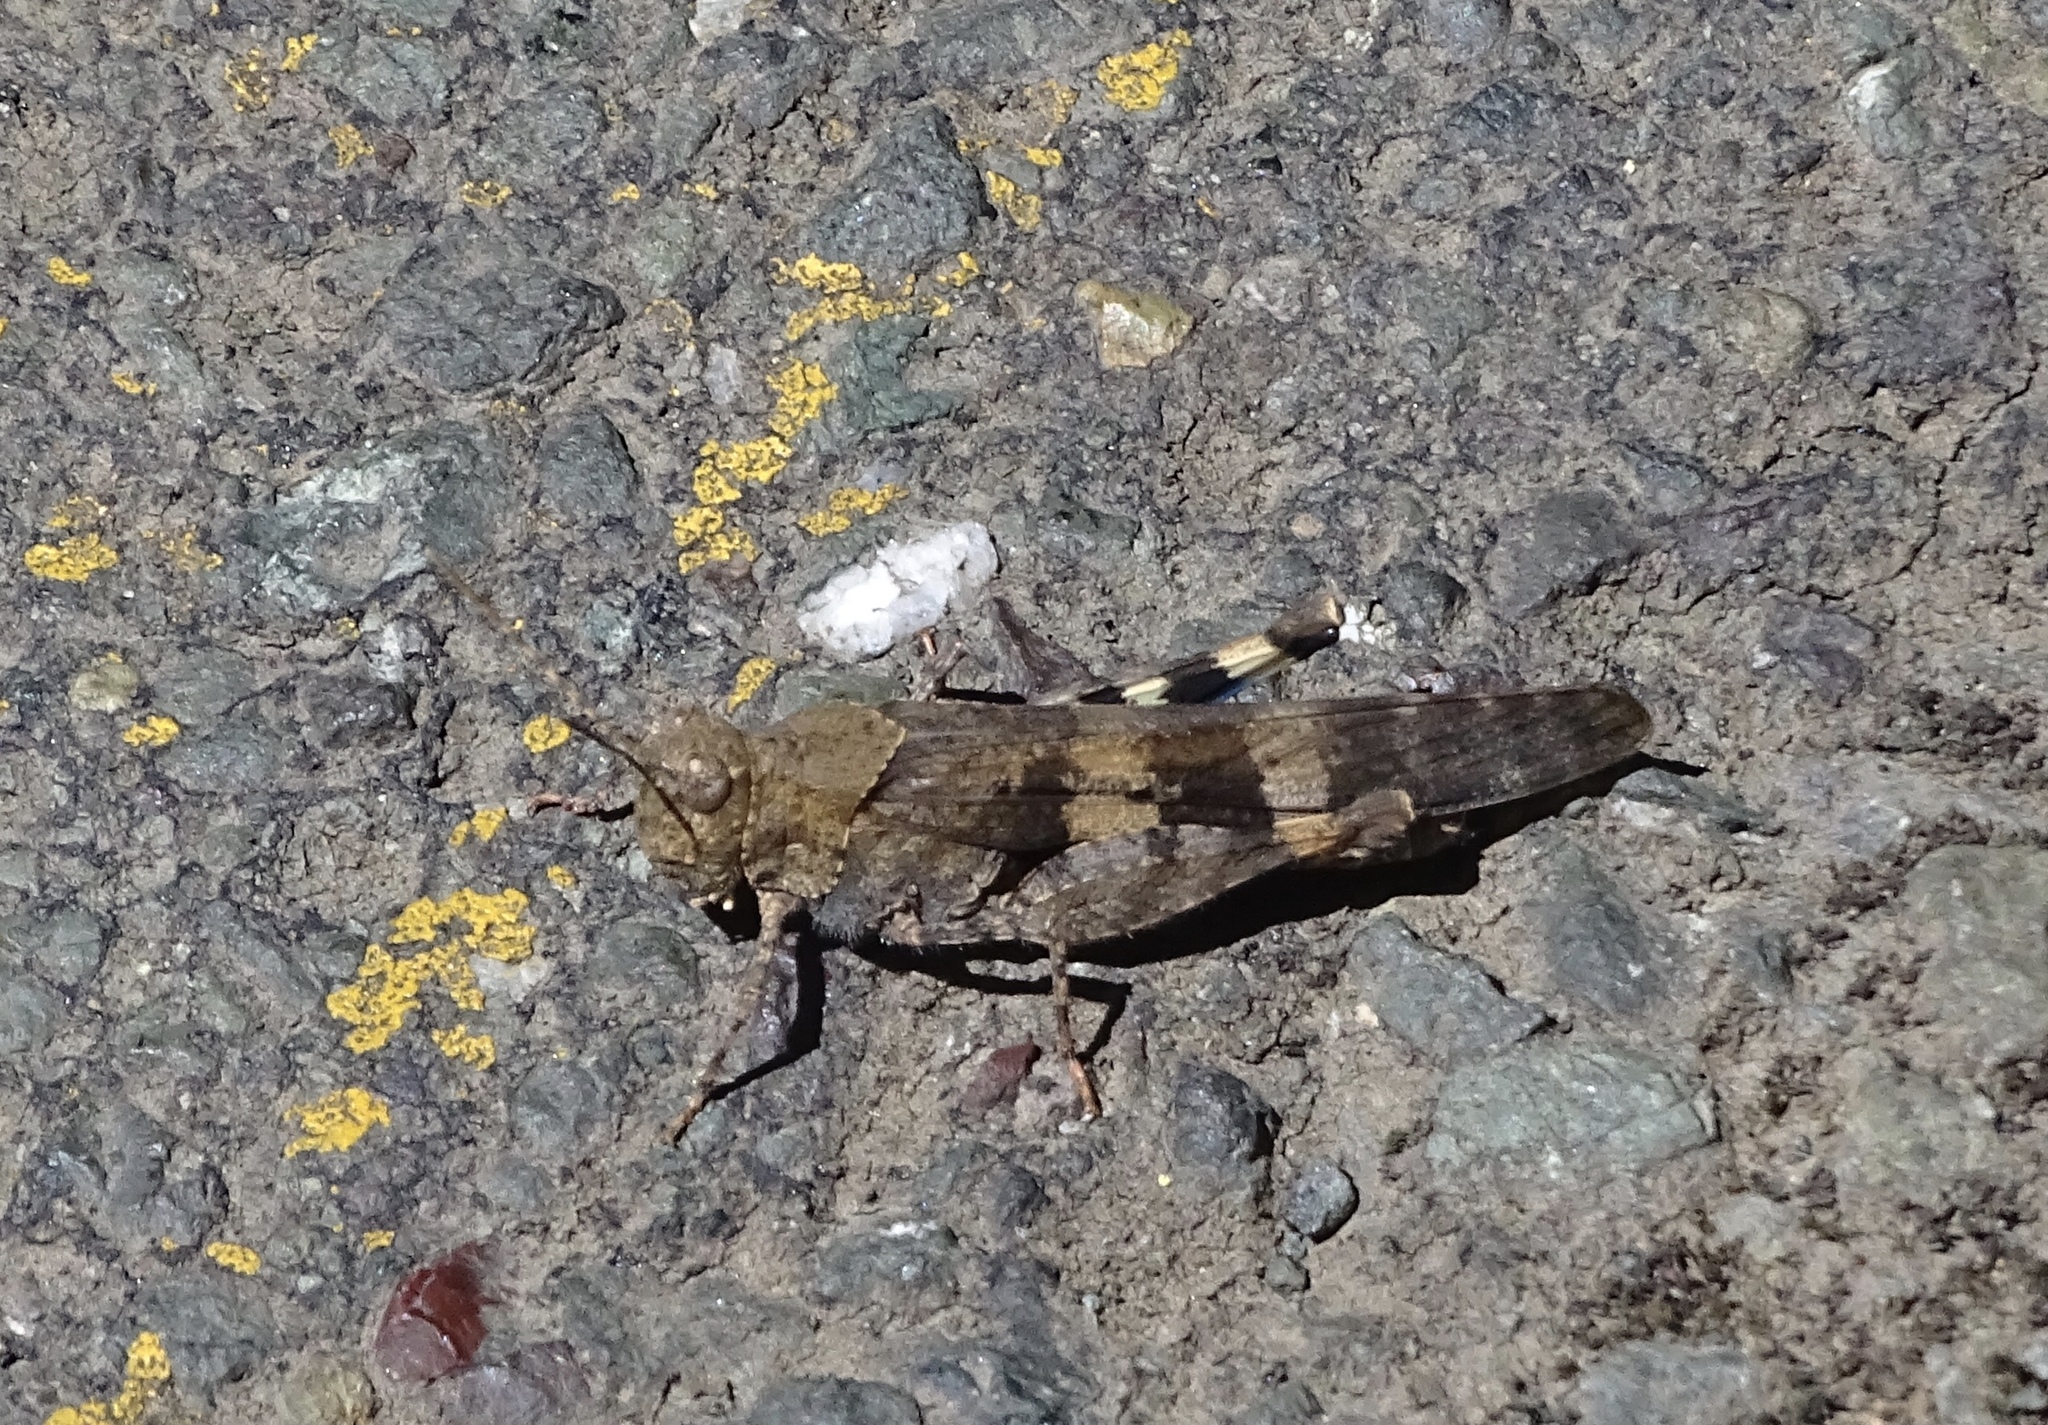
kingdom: Animalia
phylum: Arthropoda
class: Insecta
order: Orthoptera
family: Acrididae
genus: Trimerotropis
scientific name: Trimerotropis fontana
